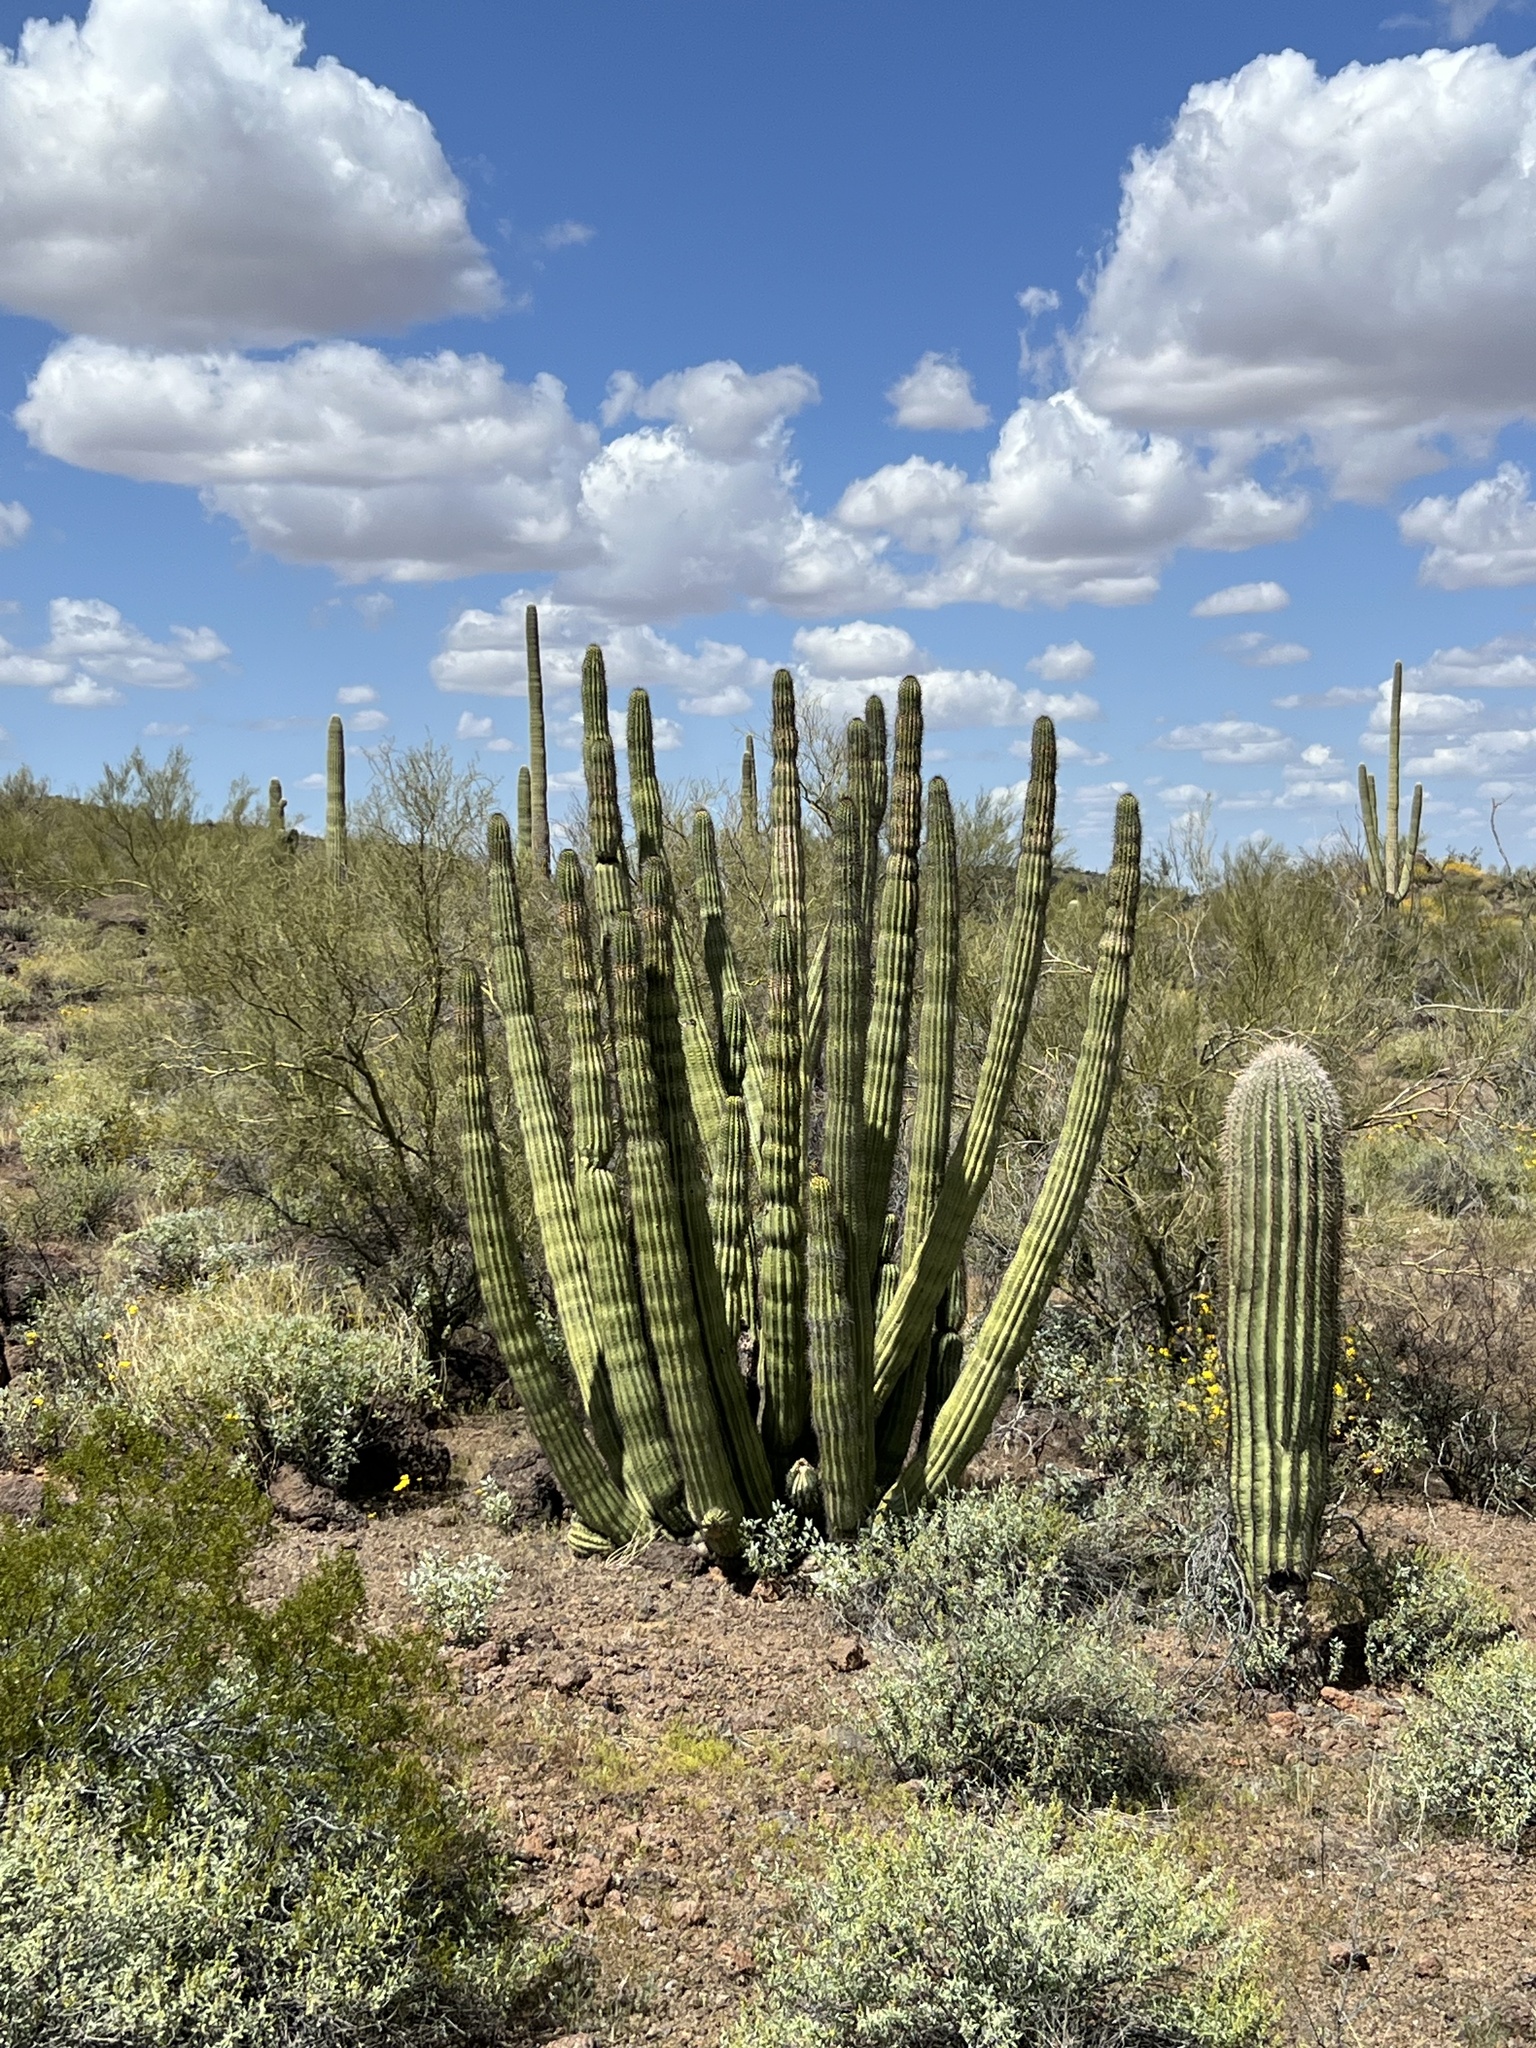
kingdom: Plantae
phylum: Tracheophyta
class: Magnoliopsida
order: Caryophyllales
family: Cactaceae
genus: Stenocereus
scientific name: Stenocereus thurberi
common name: Organ pipe cactus
